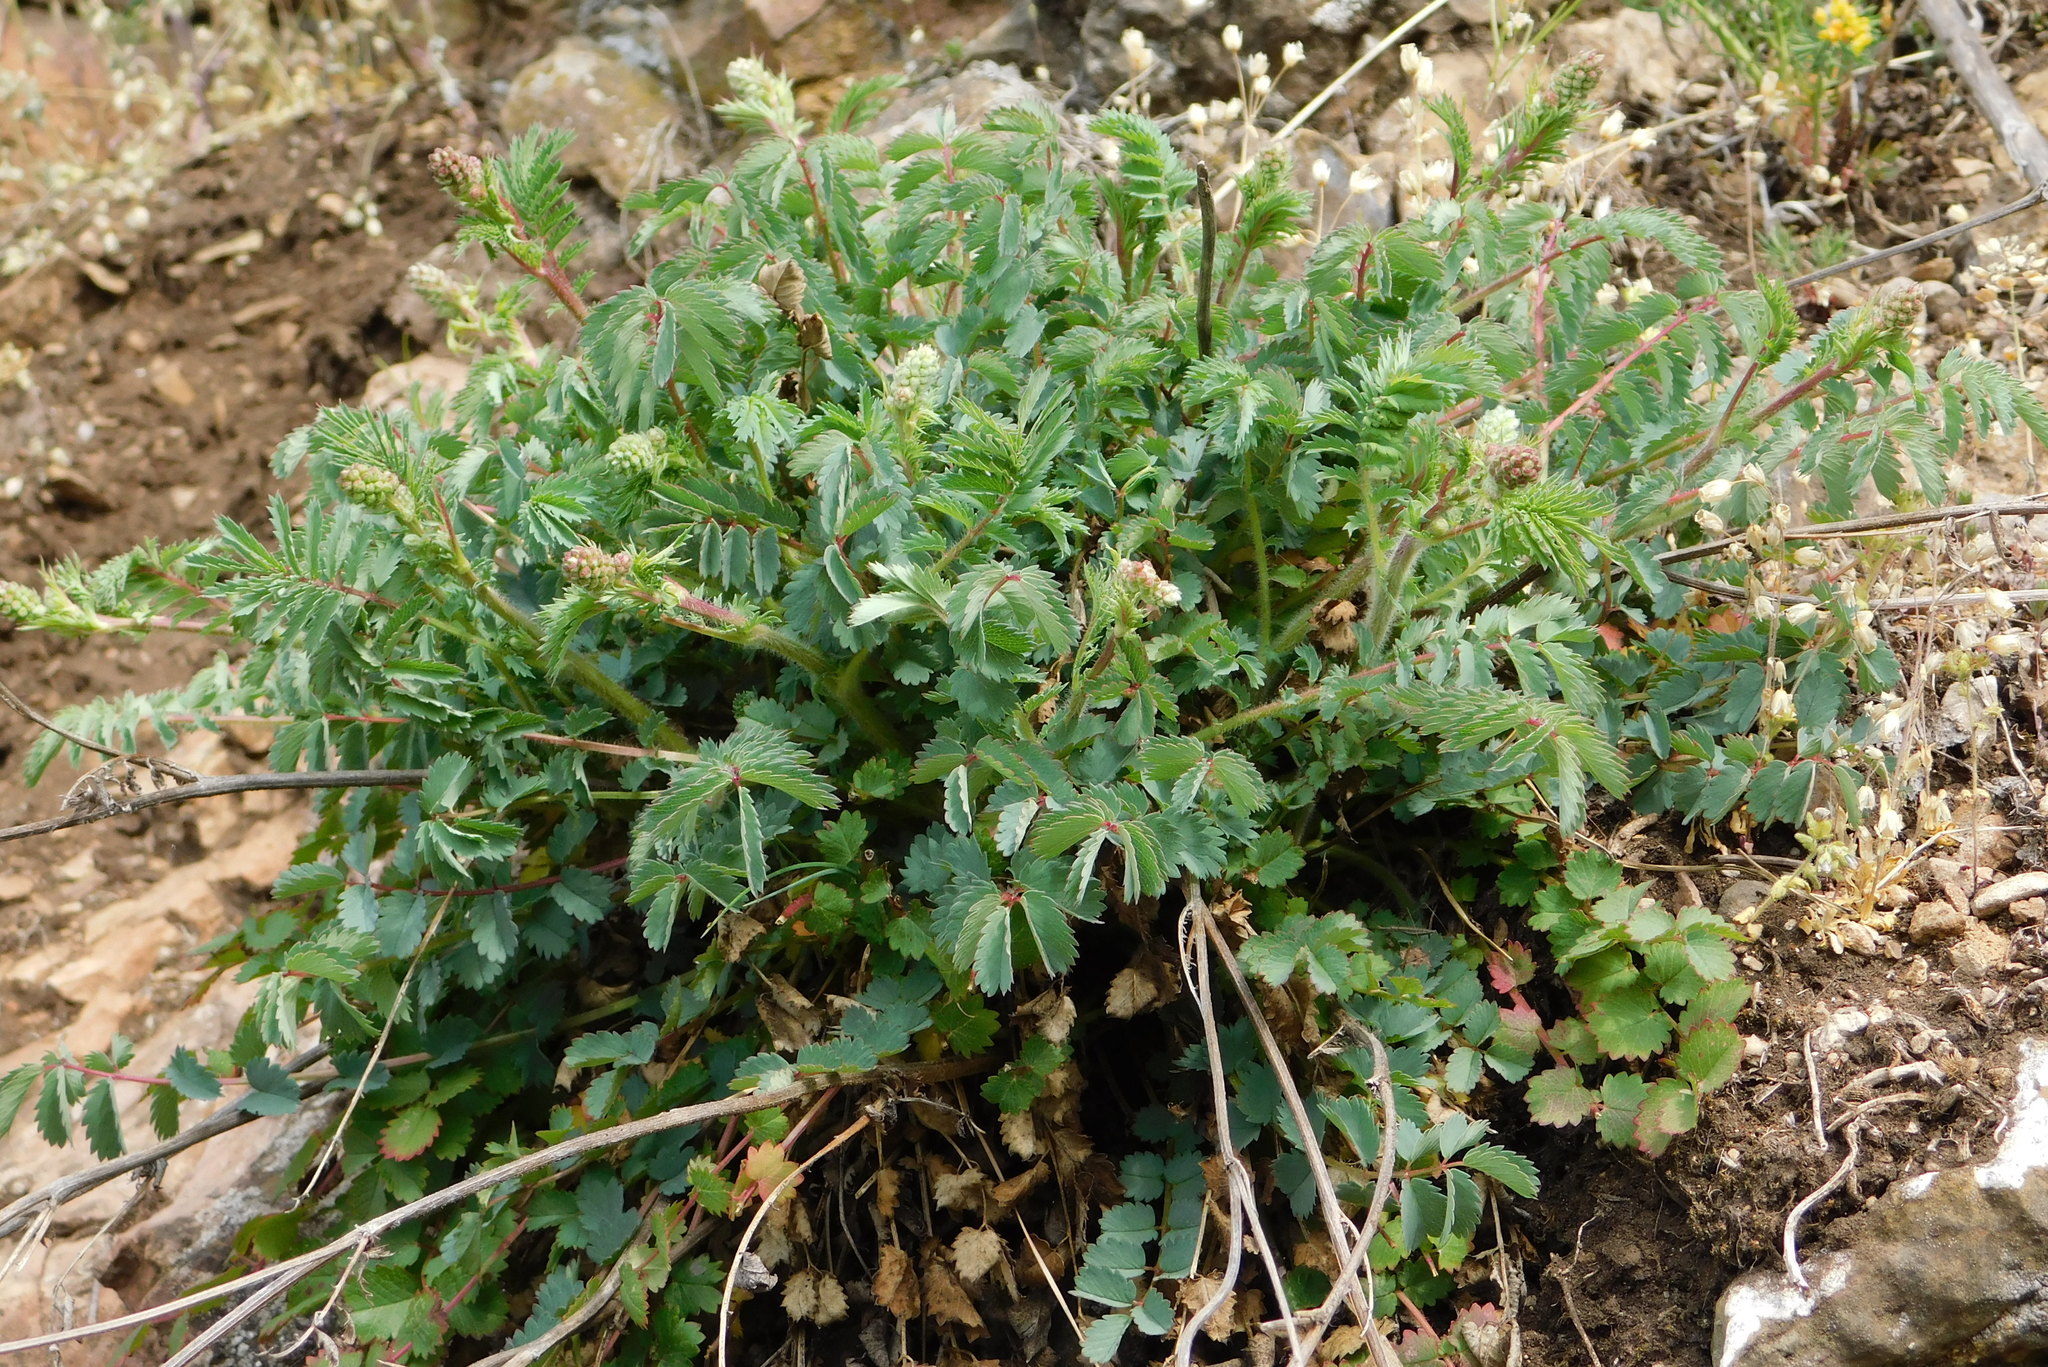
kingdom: Plantae
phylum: Tracheophyta
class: Magnoliopsida
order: Rosales
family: Rosaceae
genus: Poterium
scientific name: Poterium sanguisorba
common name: Salad burnet
